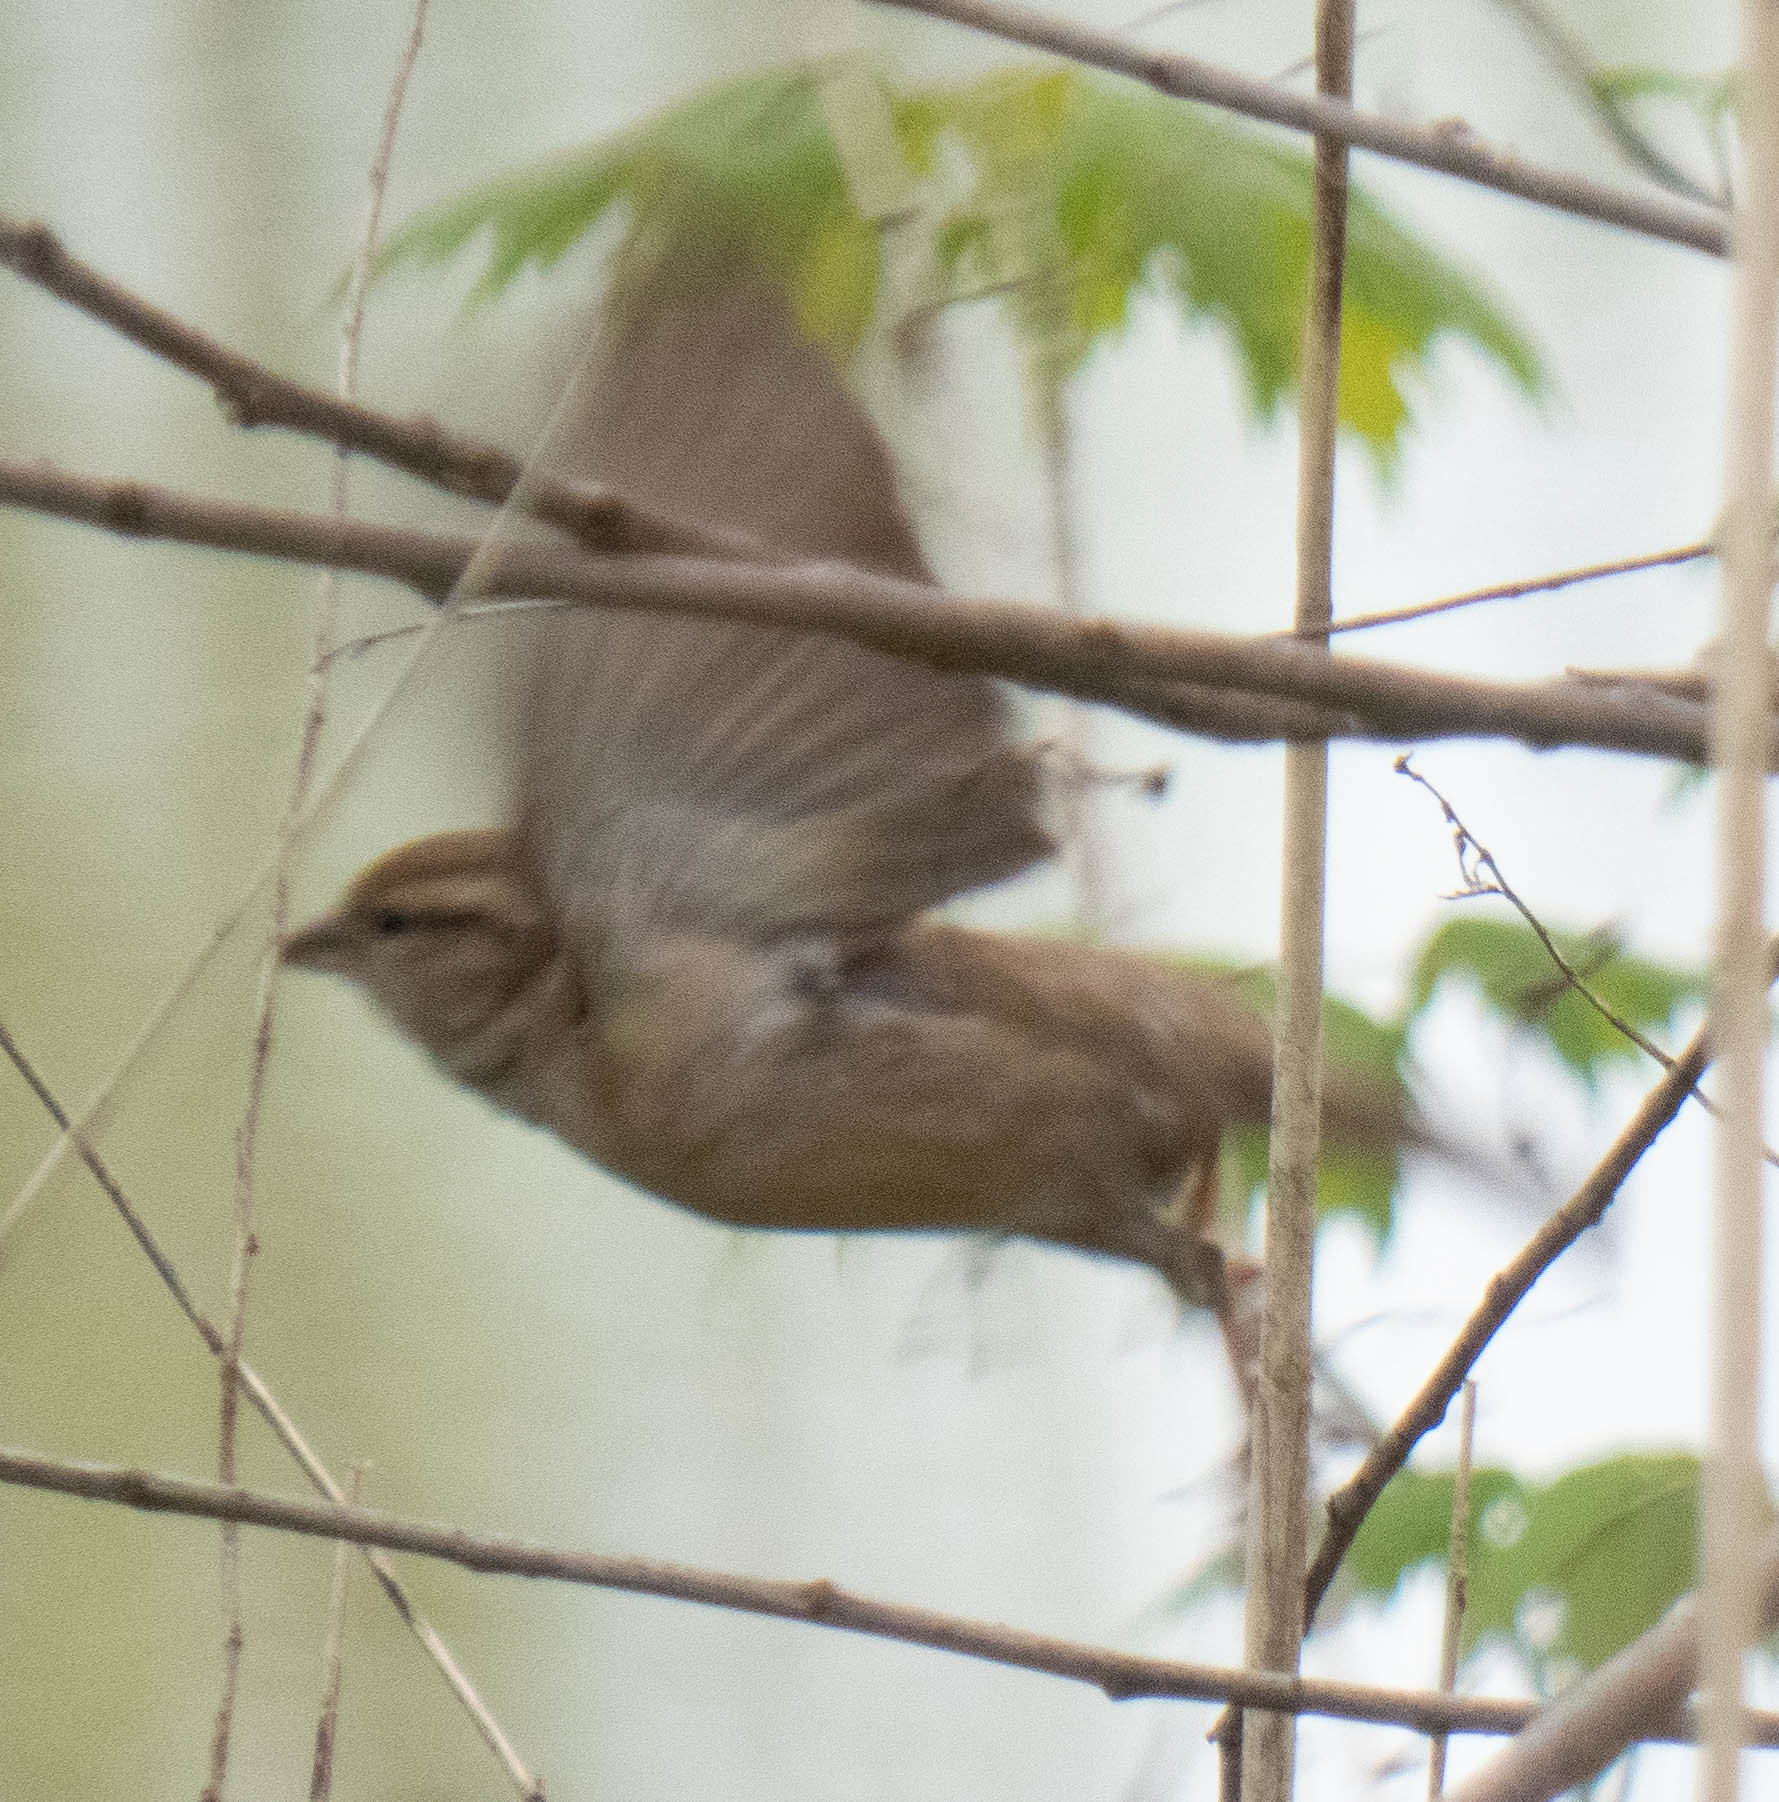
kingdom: Animalia
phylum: Chordata
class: Aves
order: Passeriformes
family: Passeridae
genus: Passer
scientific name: Passer domesticus
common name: House sparrow
